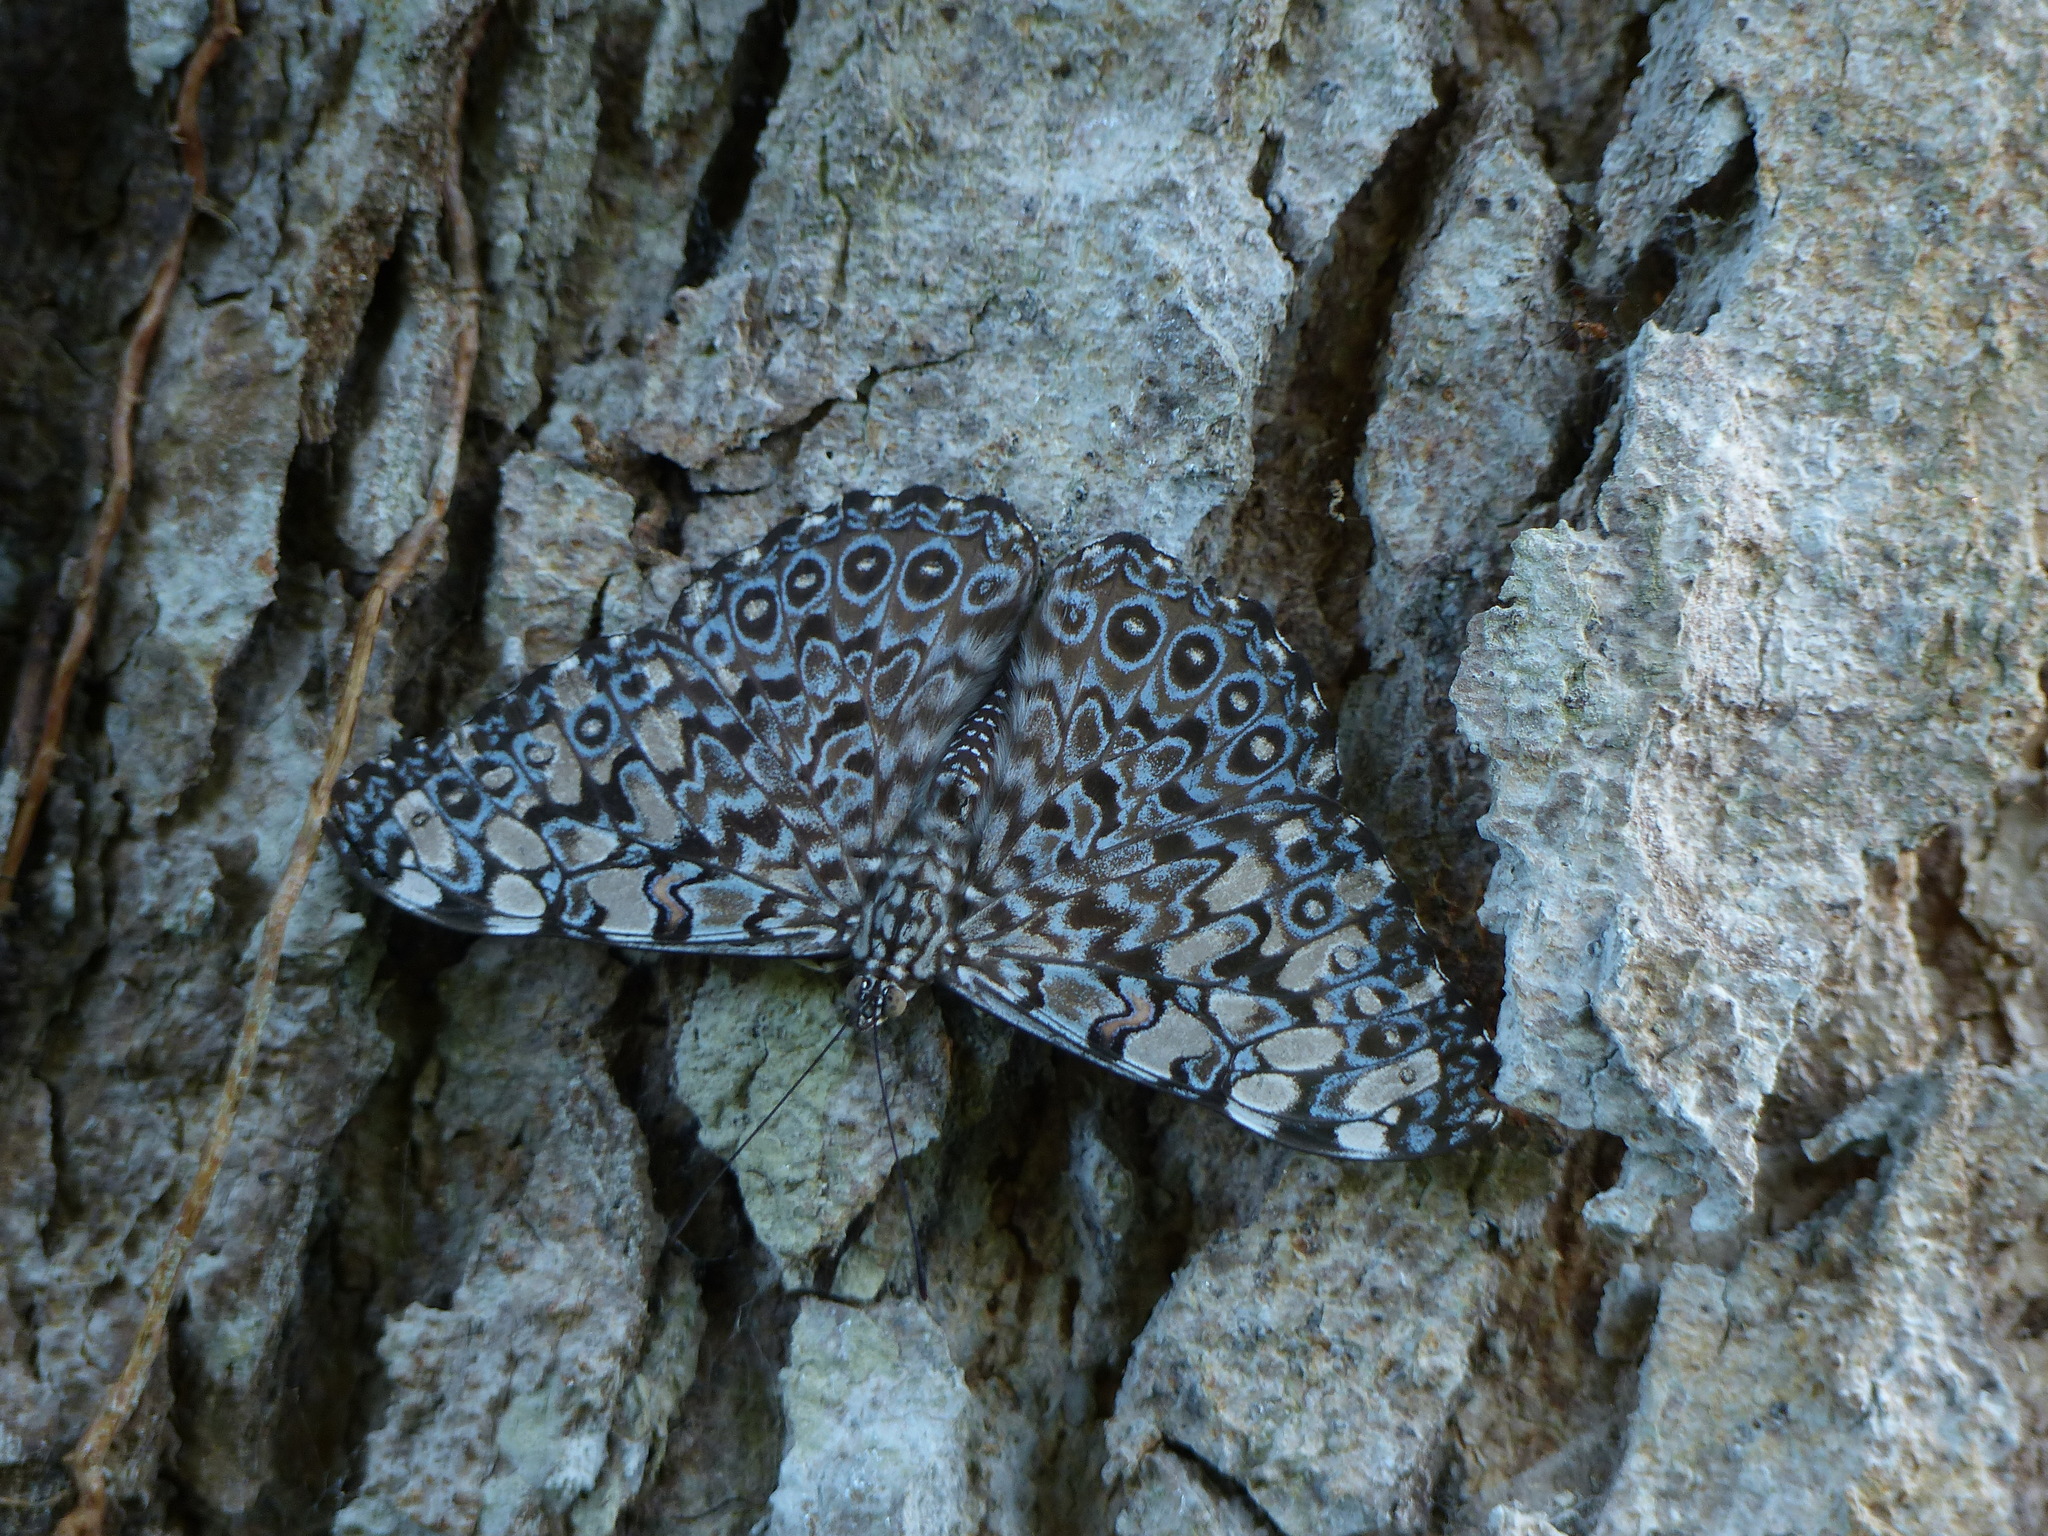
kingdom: Animalia
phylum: Arthropoda
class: Insecta
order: Lepidoptera
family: Nymphalidae
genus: Hamadryas
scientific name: Hamadryas feronia
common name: Variable cracker
